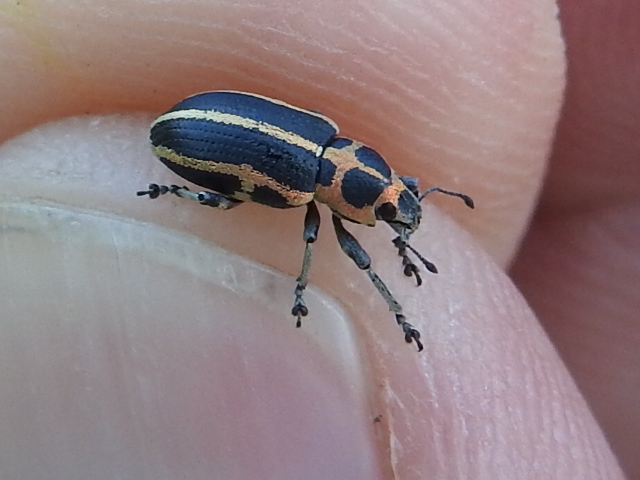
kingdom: Animalia
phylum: Arthropoda
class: Insecta
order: Coleoptera
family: Curculionidae
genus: Eudiagogus
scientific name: Eudiagogus pulcher
